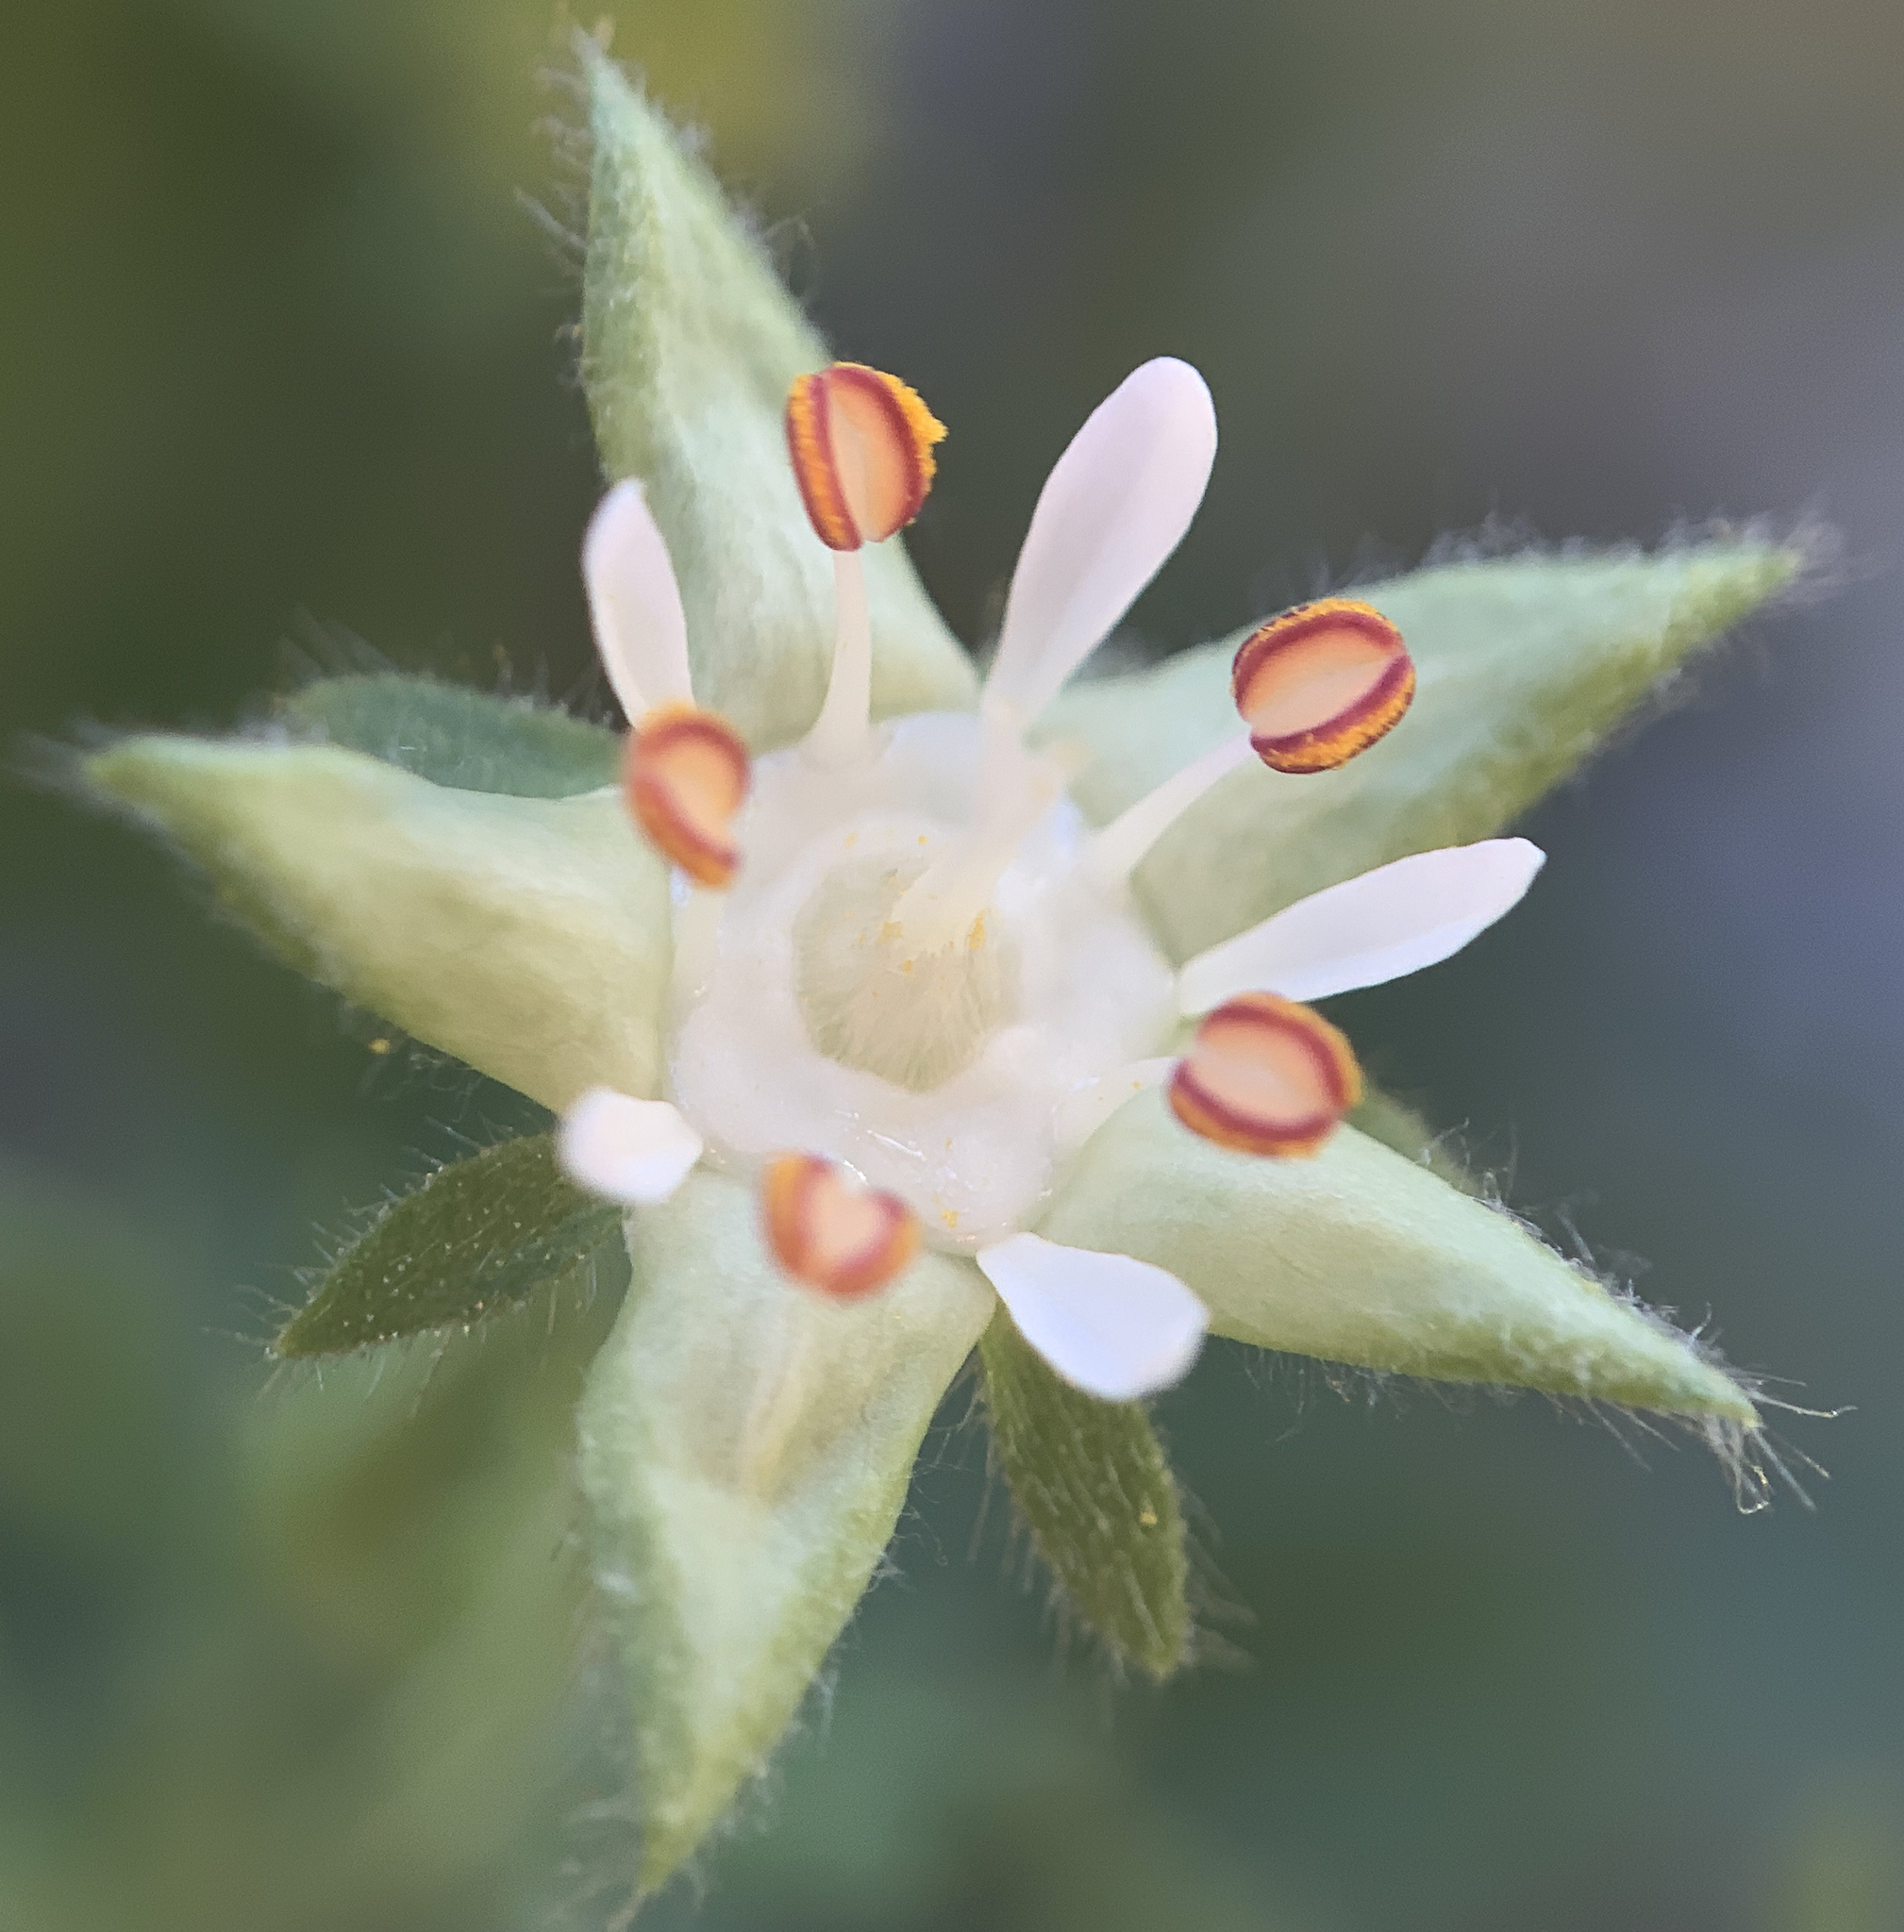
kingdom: Plantae
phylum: Tracheophyta
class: Magnoliopsida
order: Rosales
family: Rosaceae
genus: Potentilla
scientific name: Potentilla baileyi
